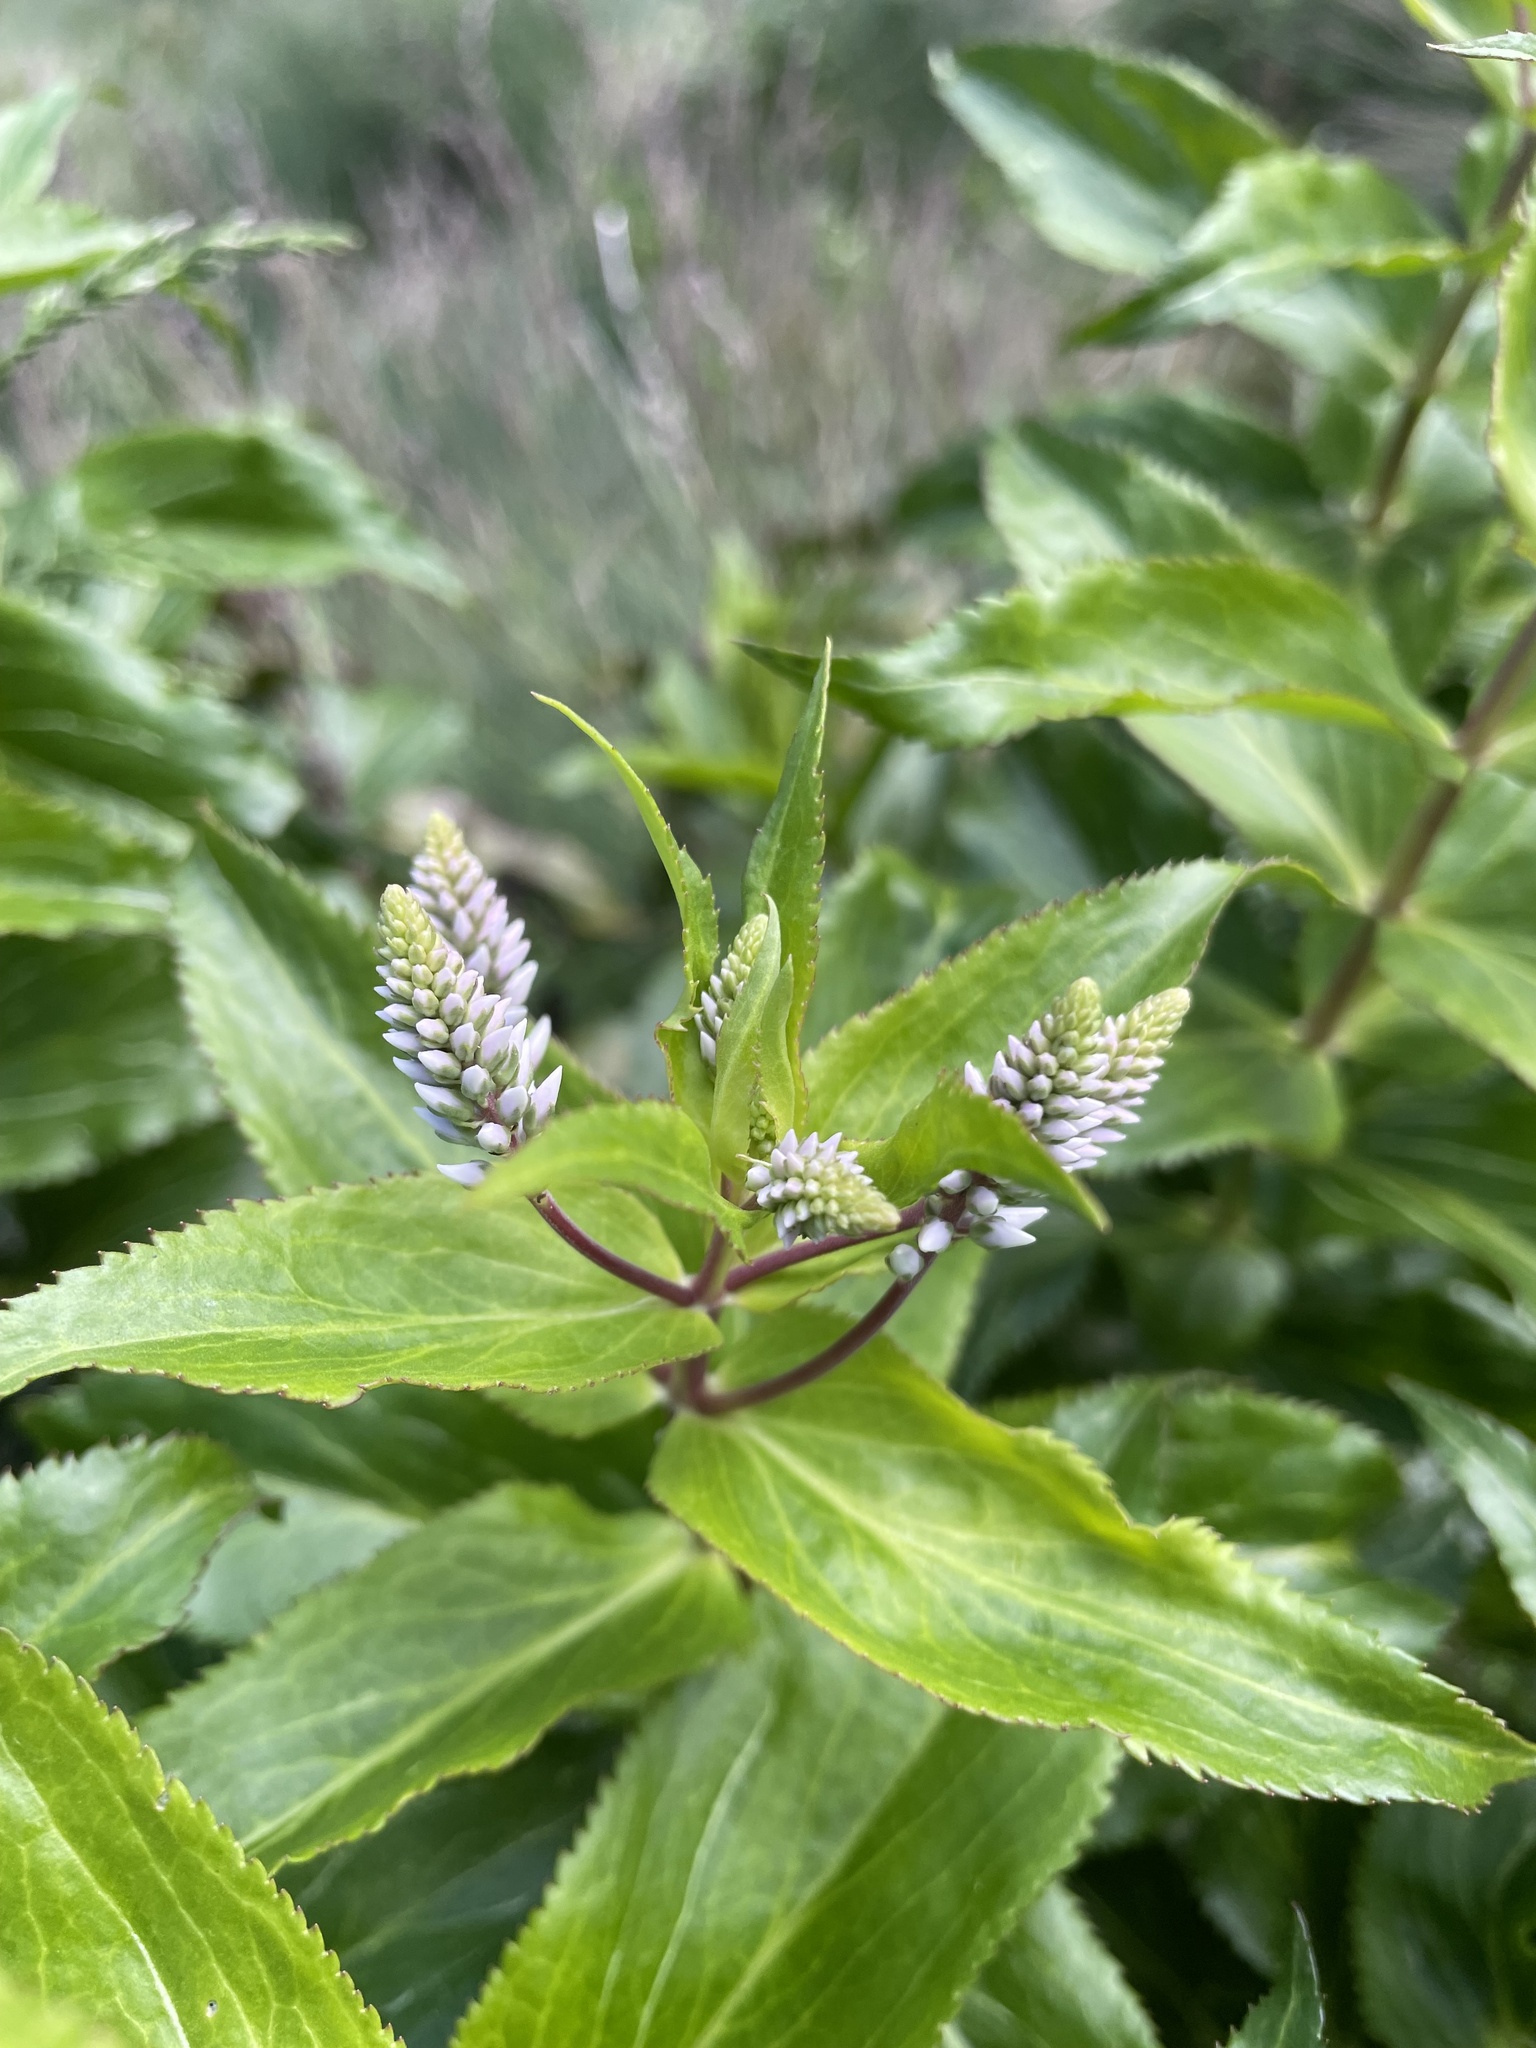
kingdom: Plantae
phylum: Tracheophyta
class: Magnoliopsida
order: Lamiales
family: Plantaginaceae
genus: Veronica
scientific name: Veronica derwentiana
